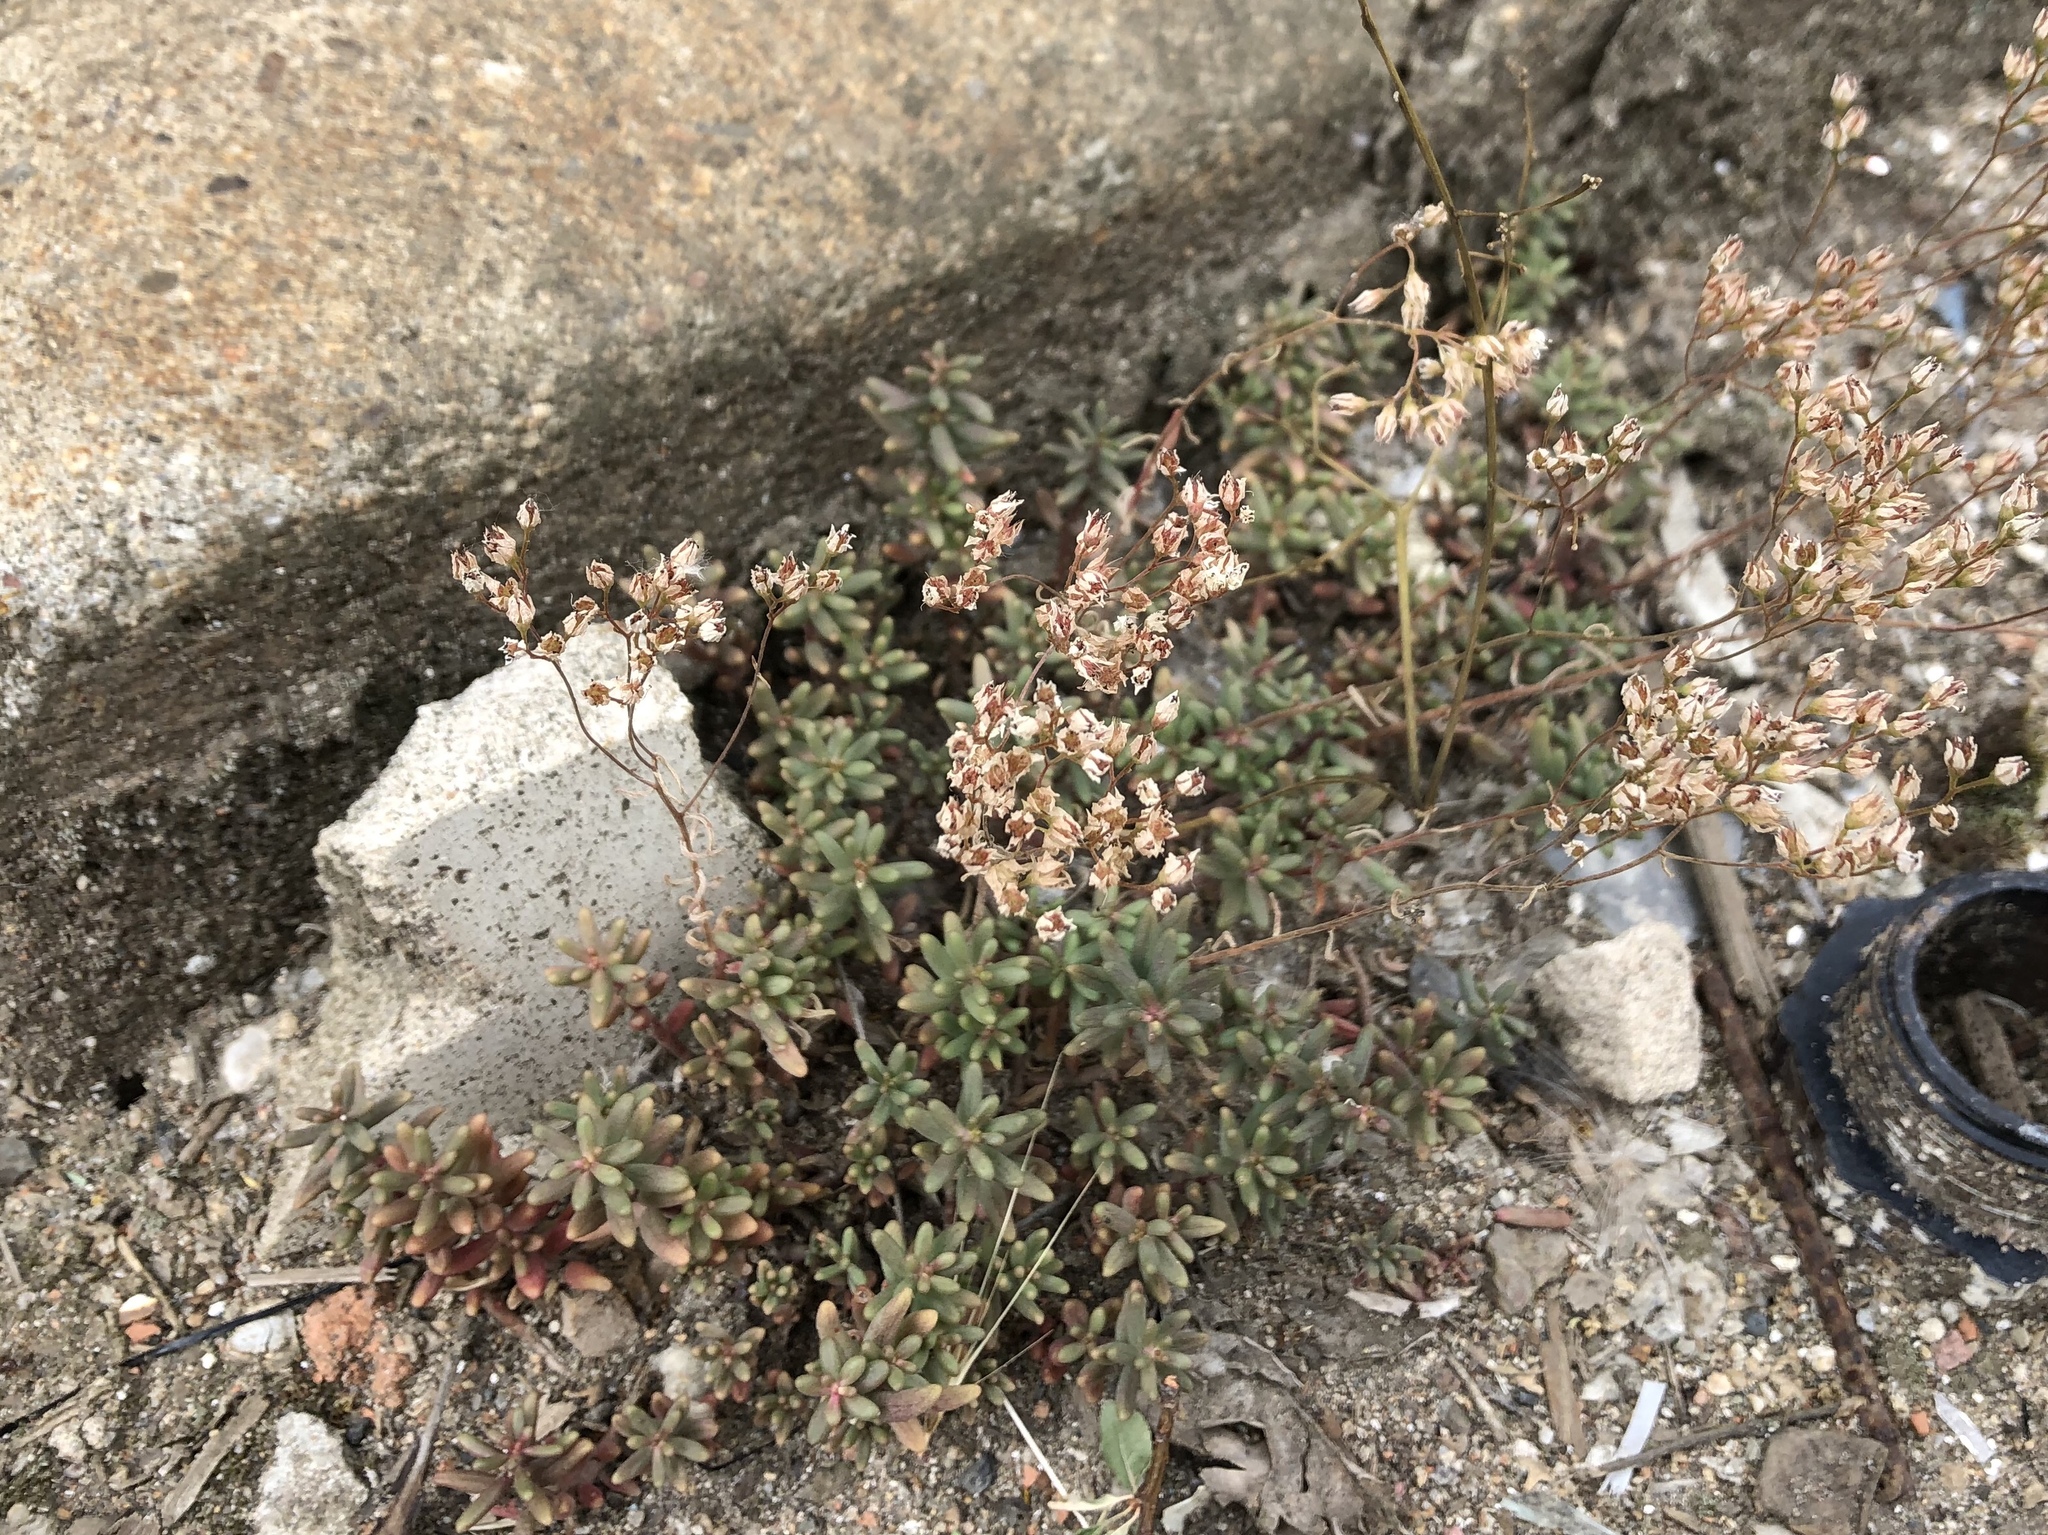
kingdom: Plantae
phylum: Tracheophyta
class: Magnoliopsida
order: Saxifragales
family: Crassulaceae
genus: Sedum
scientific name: Sedum album
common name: White stonecrop
